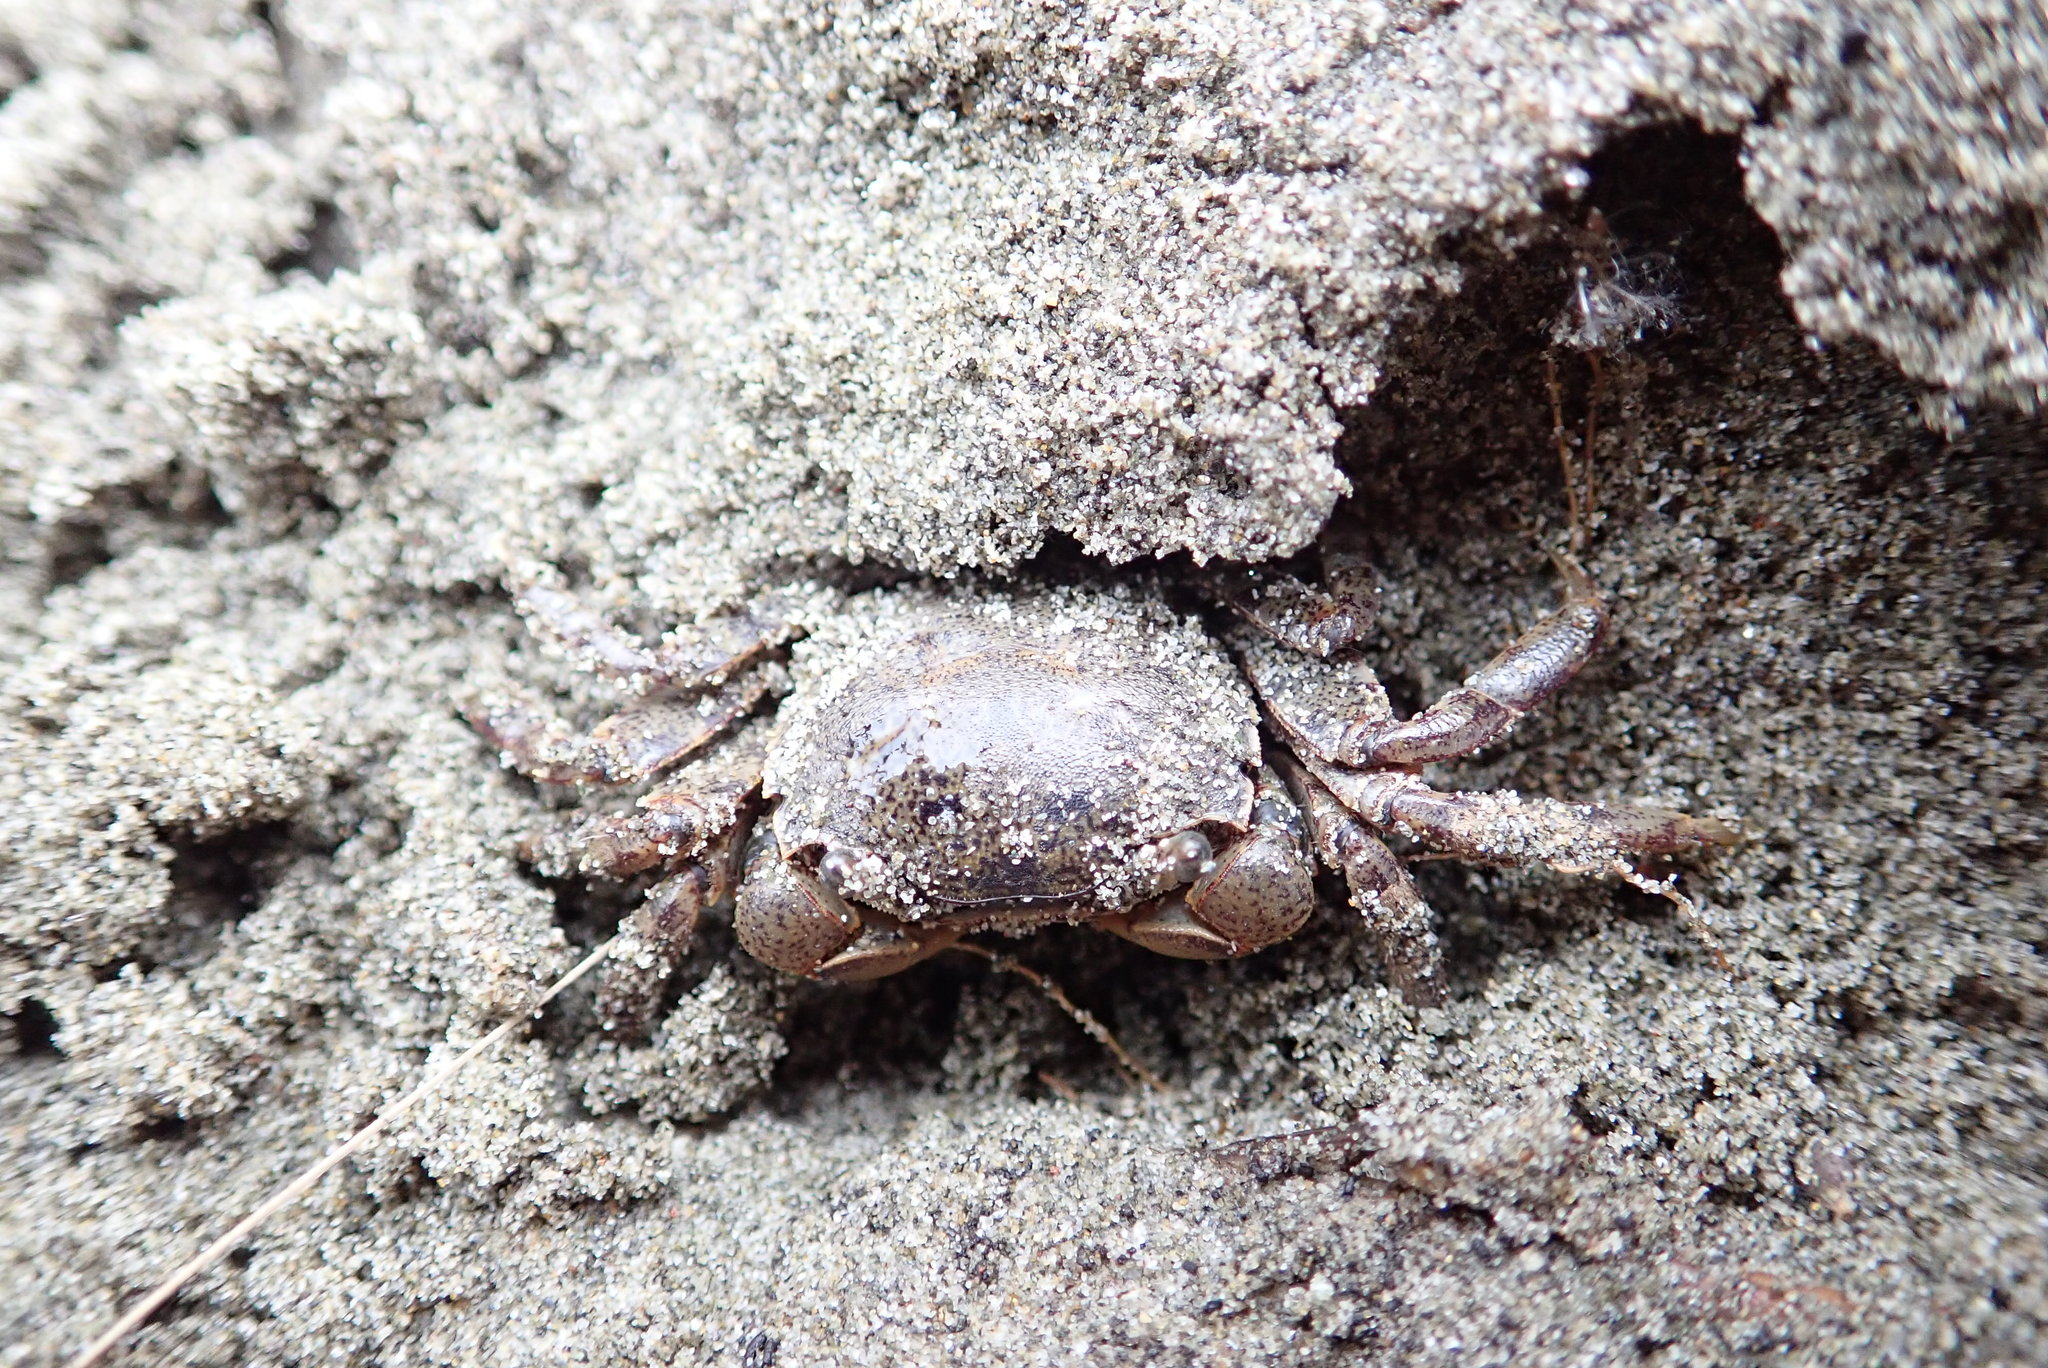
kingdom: Animalia
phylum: Arthropoda
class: Malacostraca
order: Decapoda
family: Varunidae
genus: Austrohelice
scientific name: Austrohelice crassa
